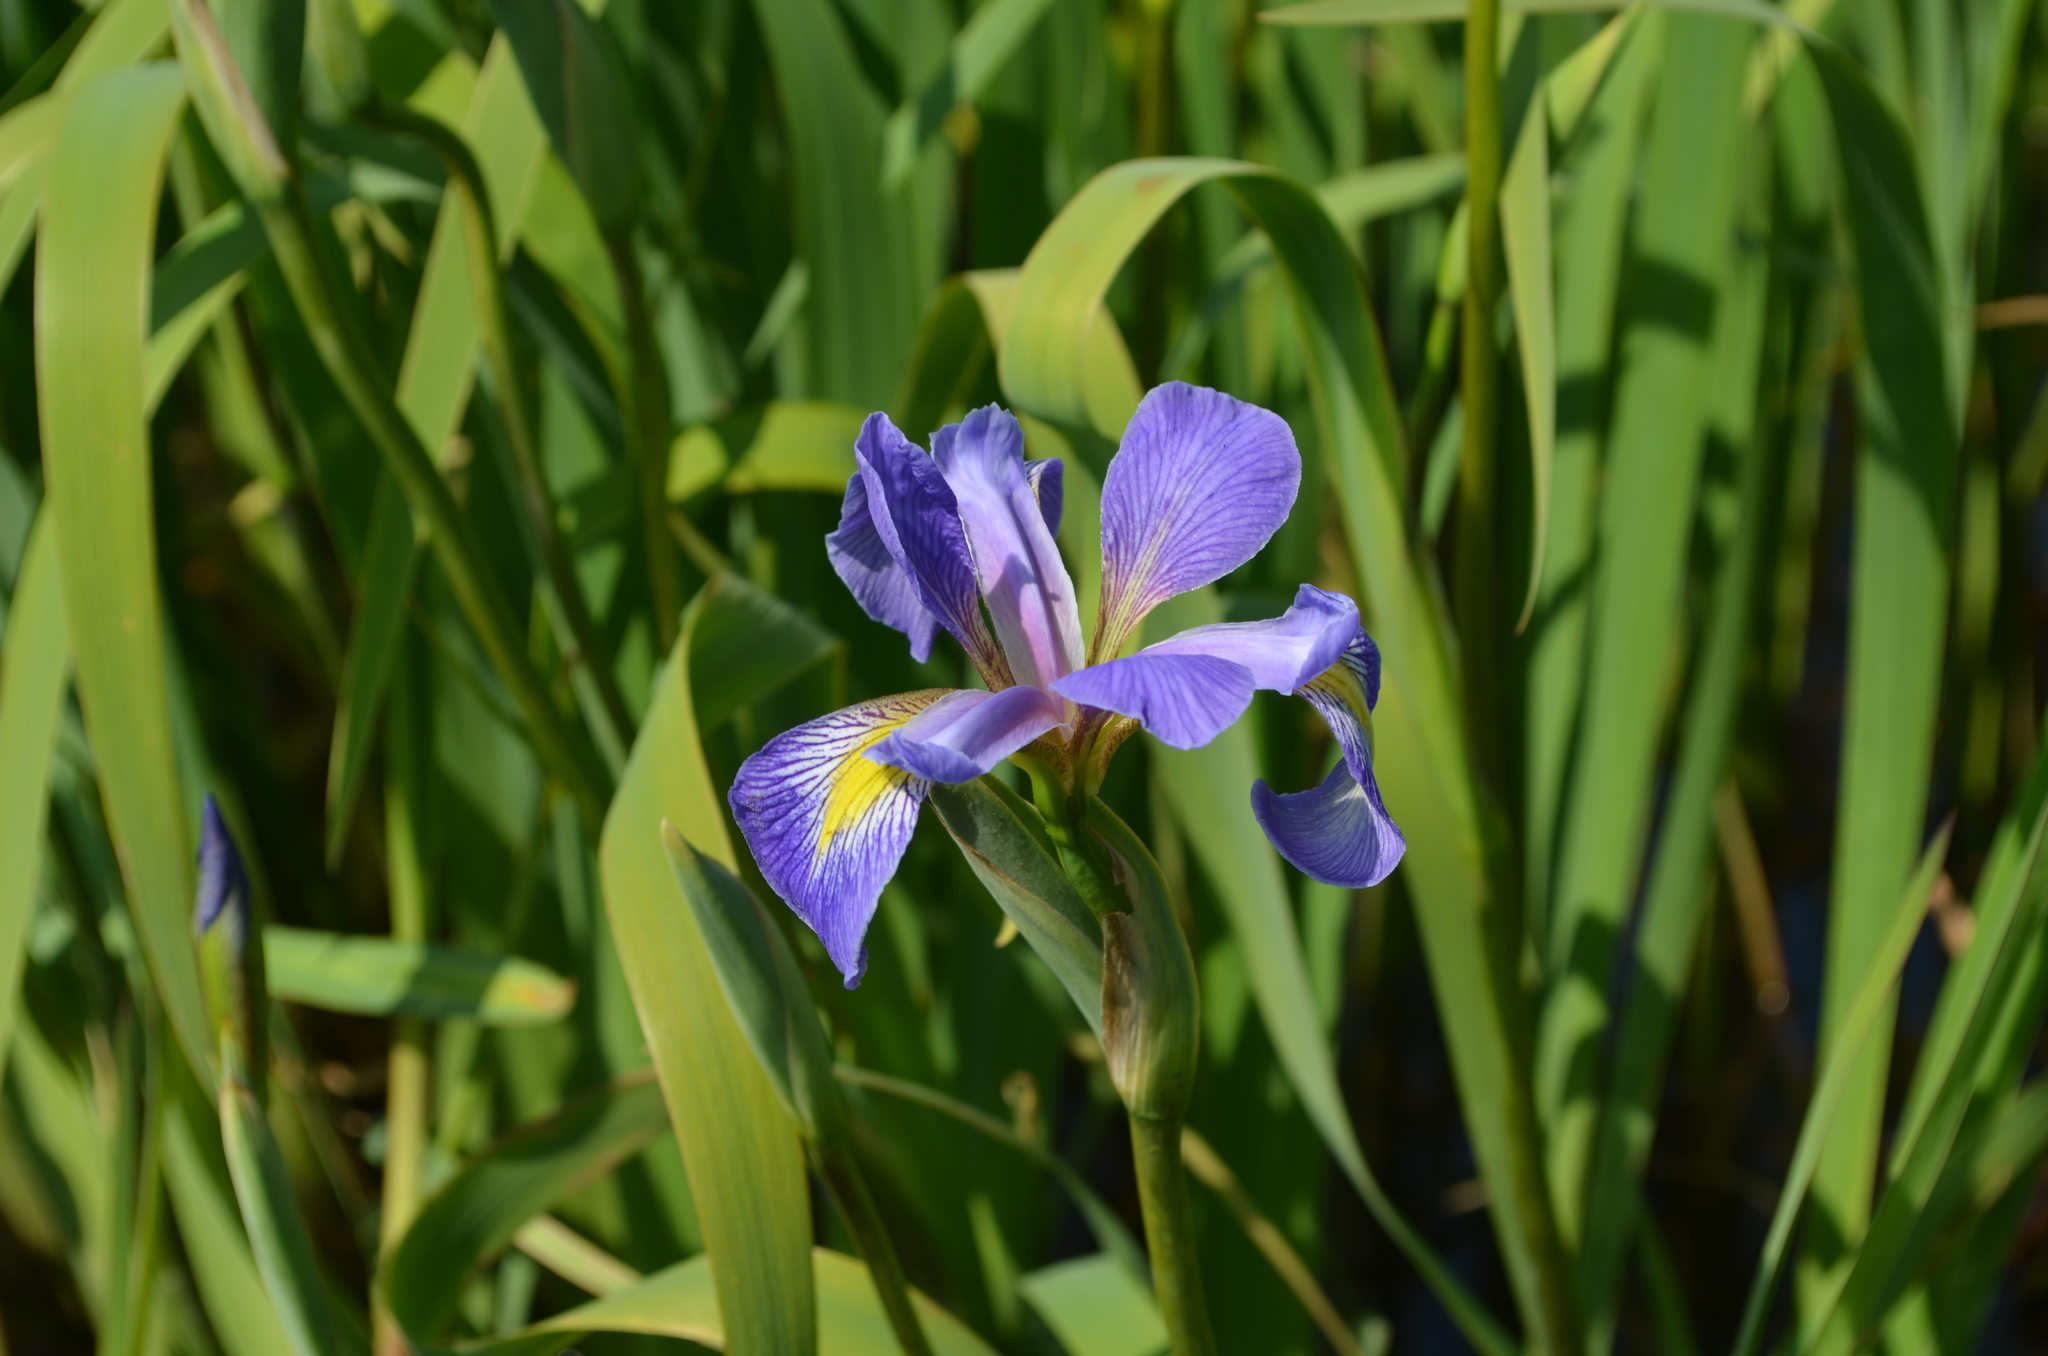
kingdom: Plantae
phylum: Tracheophyta
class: Liliopsida
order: Asparagales
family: Iridaceae
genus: Iris
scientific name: Iris virginica
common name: Southern blue flag
